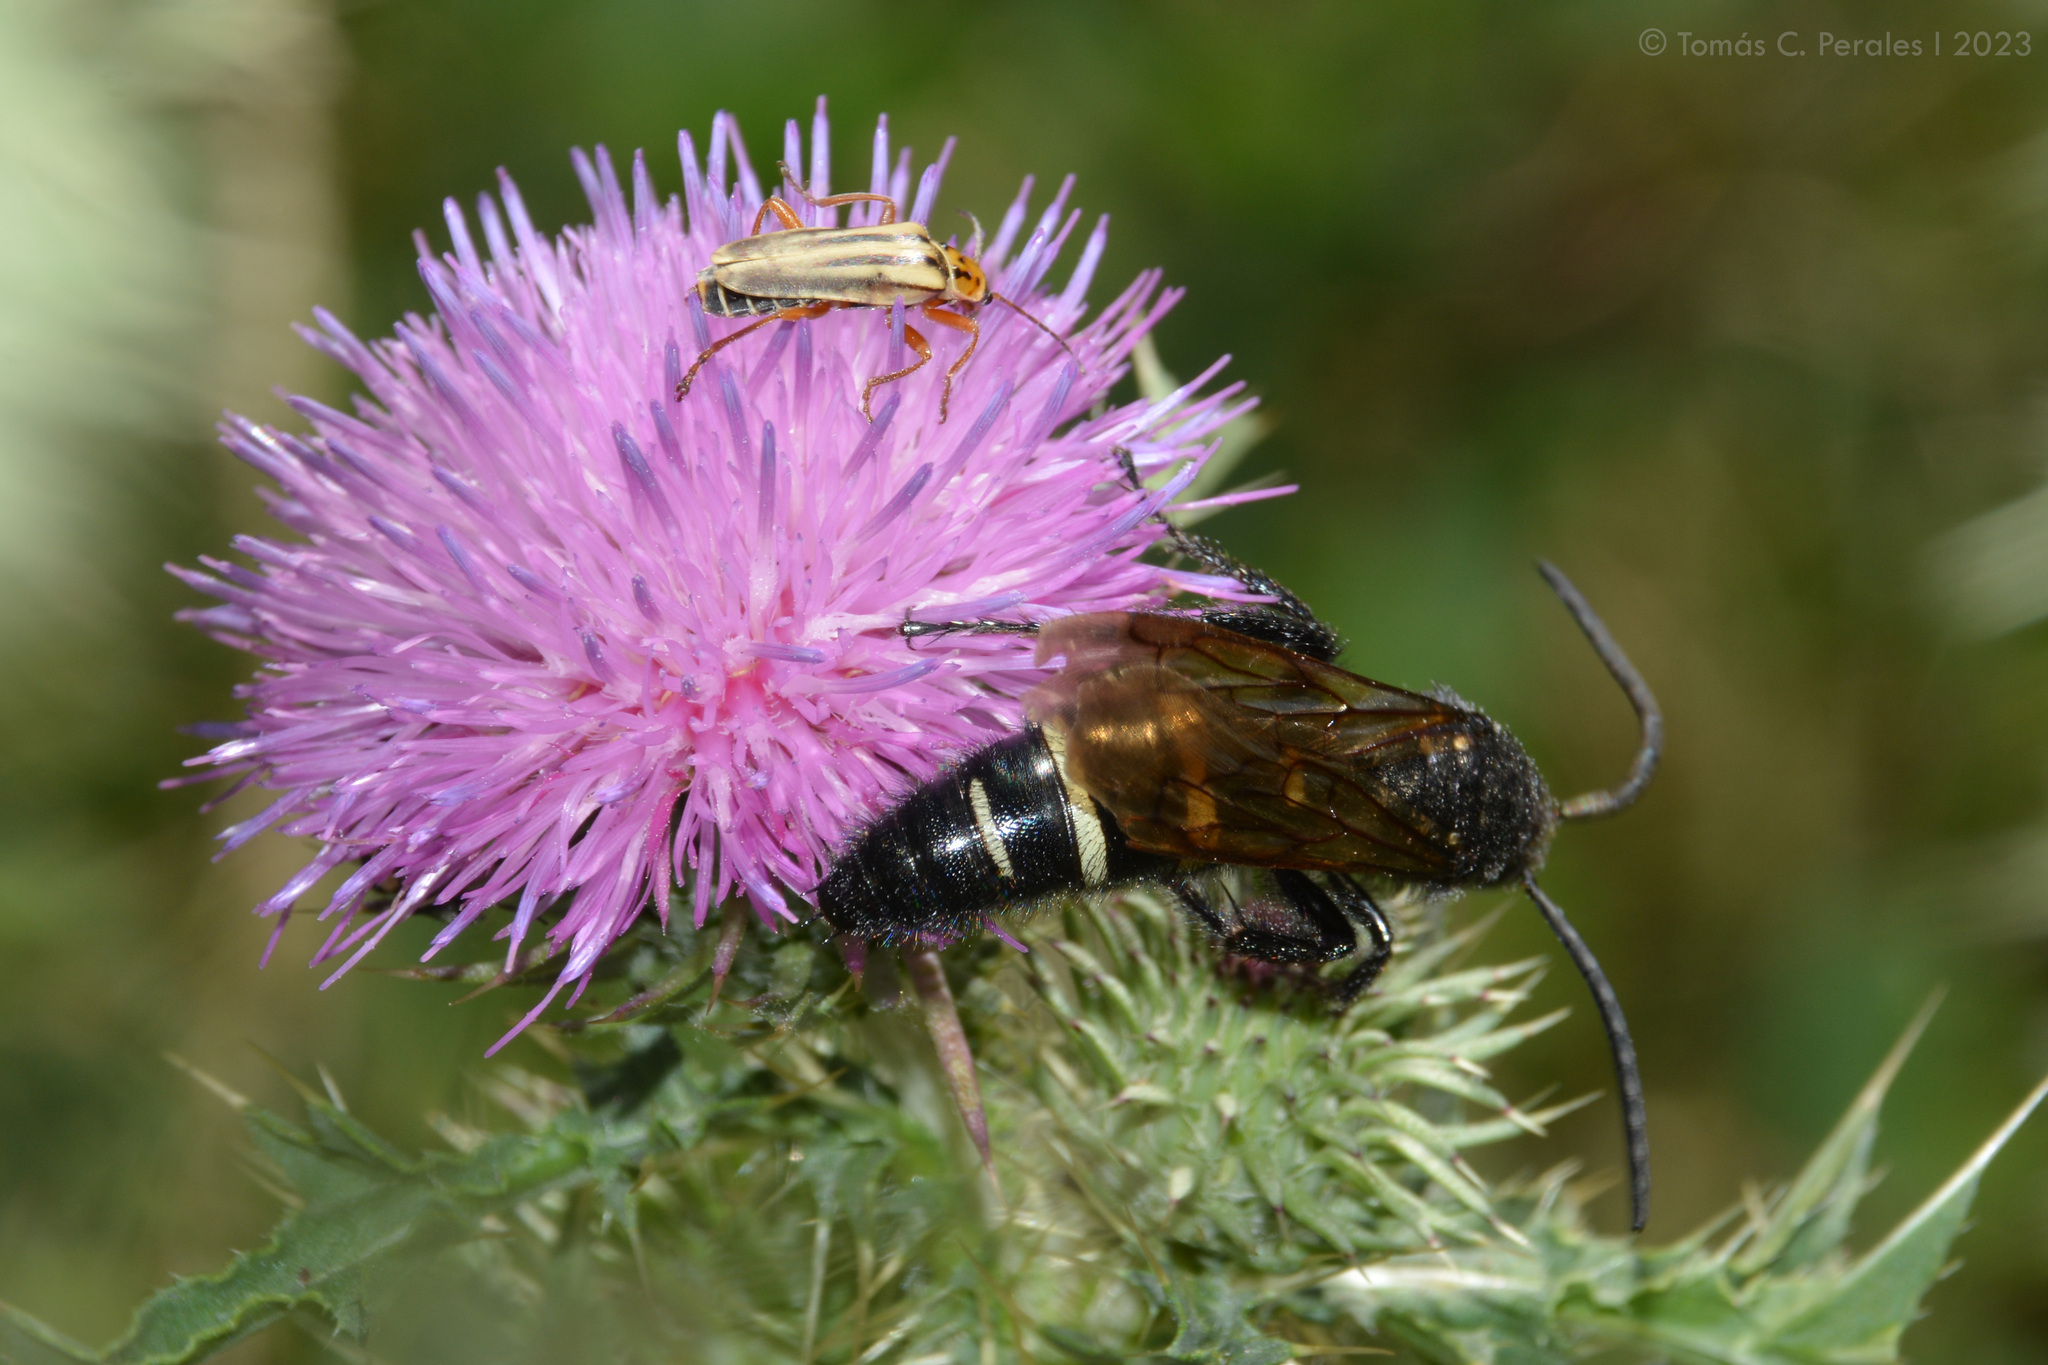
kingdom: Animalia
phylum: Arthropoda
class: Insecta
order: Coleoptera
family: Cantharidae
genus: Chauliognathus
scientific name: Chauliognathus
